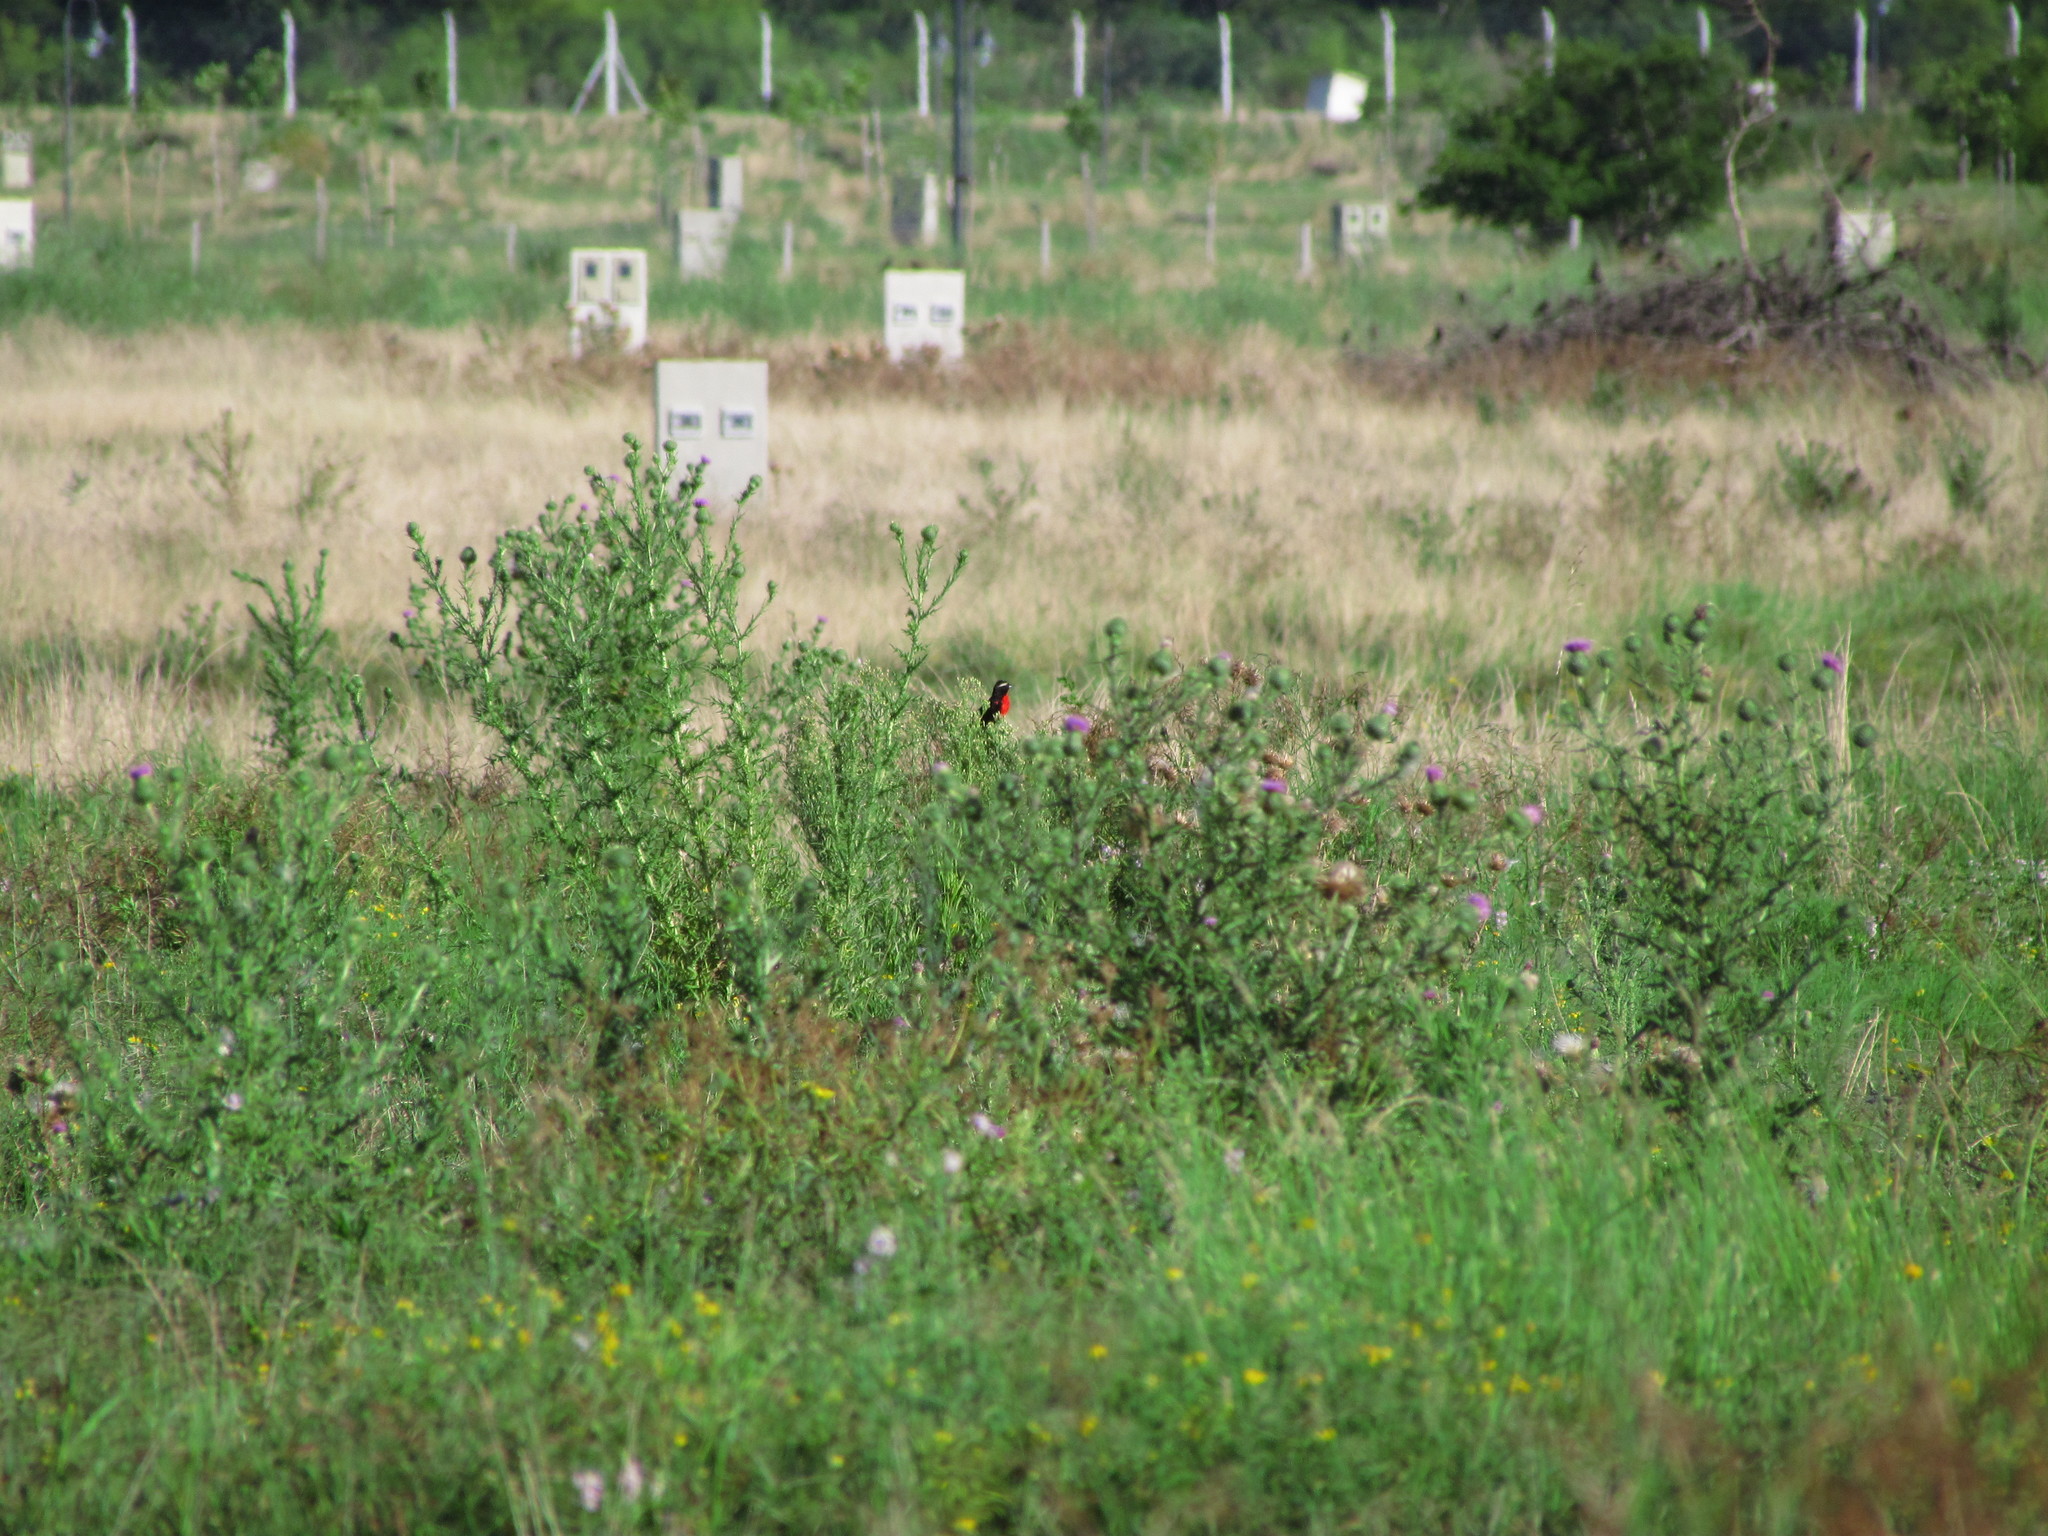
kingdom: Animalia
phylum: Chordata
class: Aves
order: Passeriformes
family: Icteridae
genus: Sturnella
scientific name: Sturnella superciliaris
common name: White-browed blackbird
